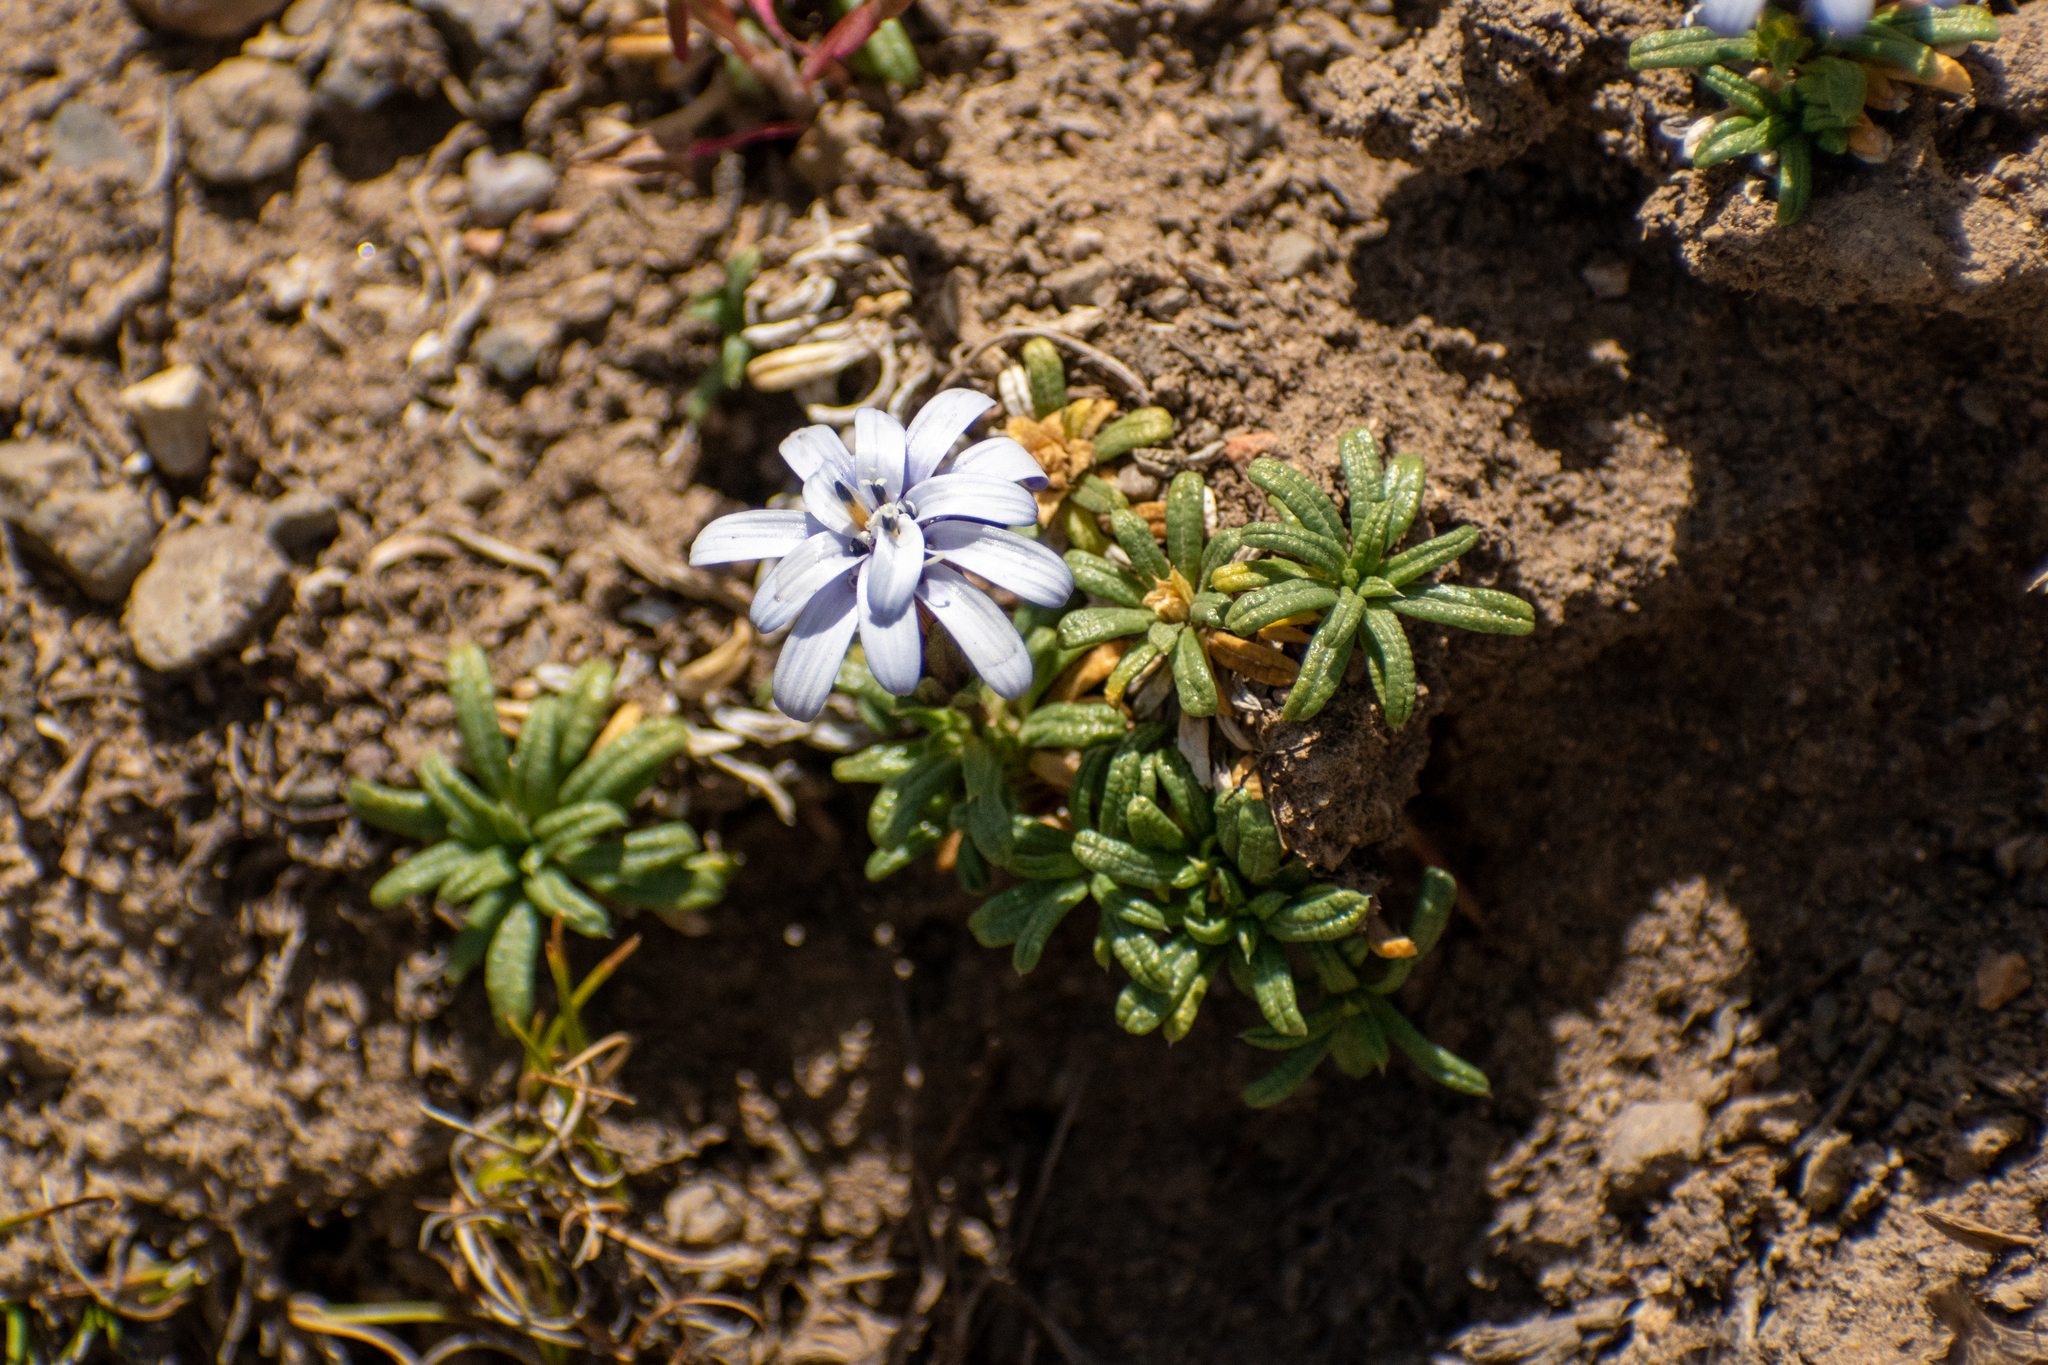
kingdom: Plantae
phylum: Tracheophyta
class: Magnoliopsida
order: Asterales
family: Asteraceae
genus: Perezia
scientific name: Perezia recurvata
